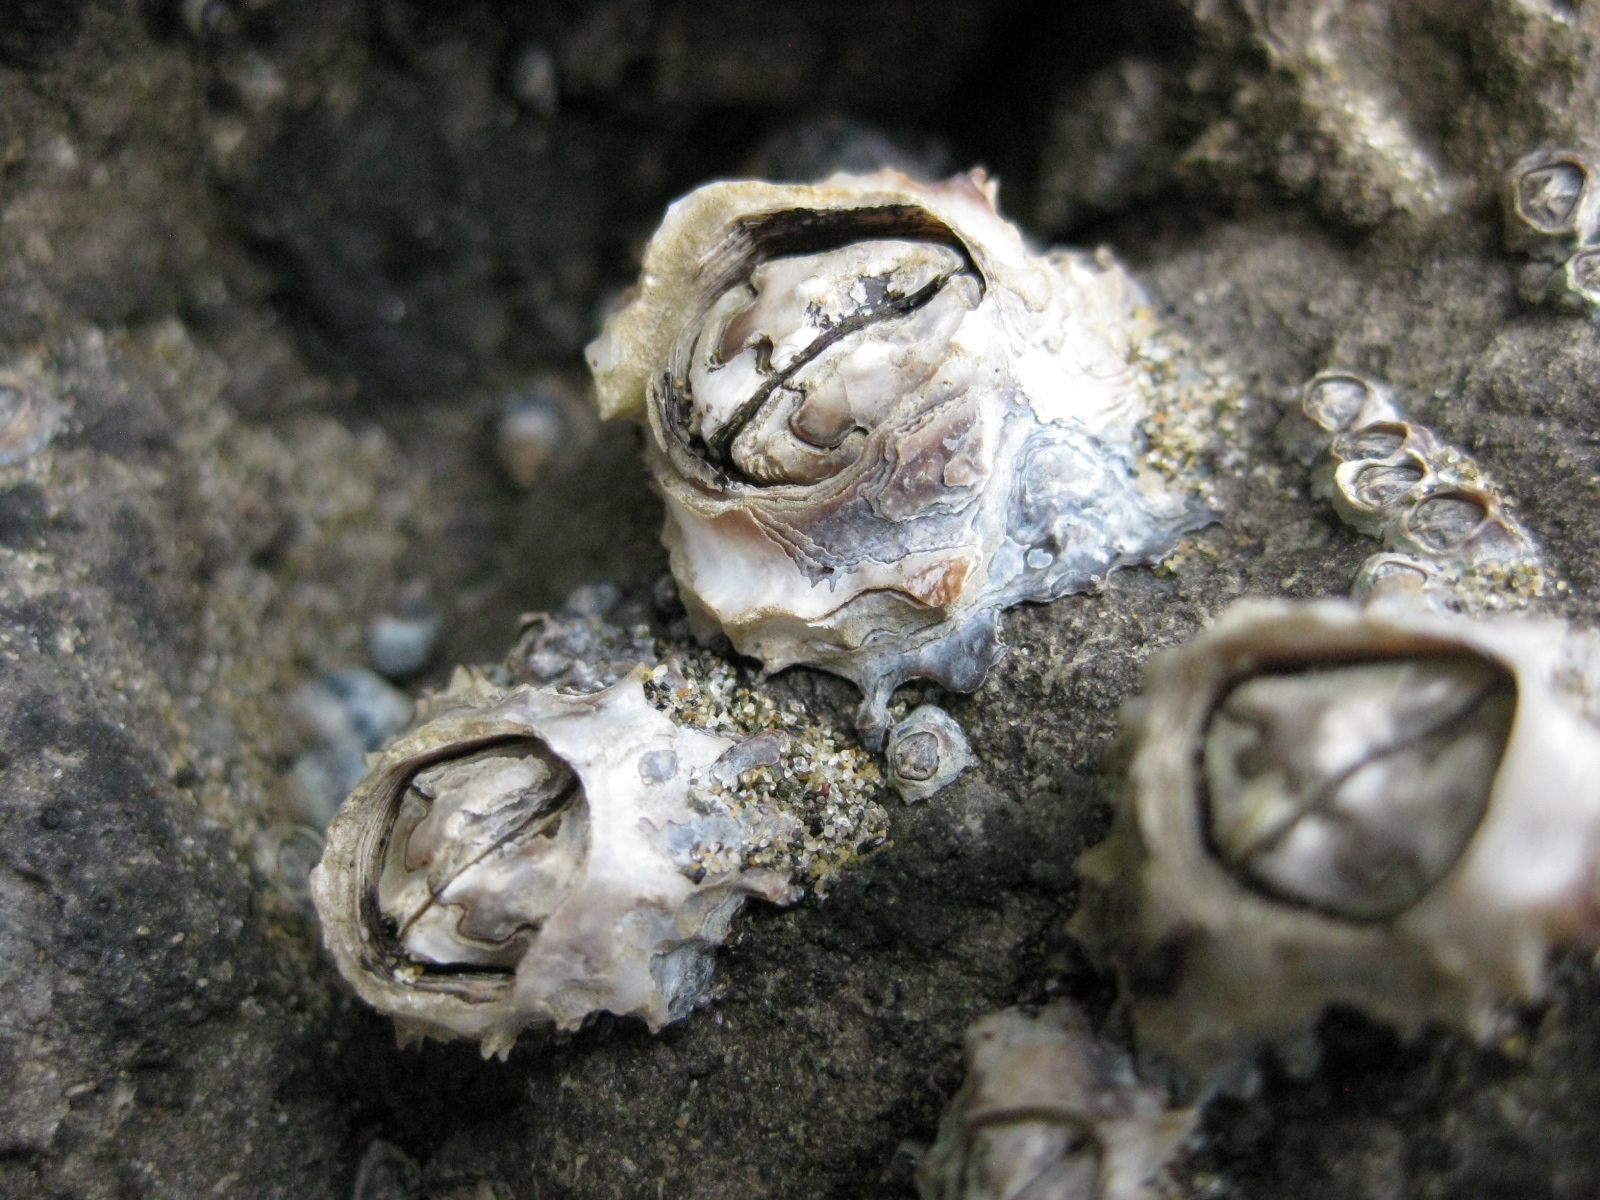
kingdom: Animalia
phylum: Arthropoda
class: Maxillopoda
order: Sessilia
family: Chthamalidae
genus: Chamaesipho
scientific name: Chamaesipho brunnea
